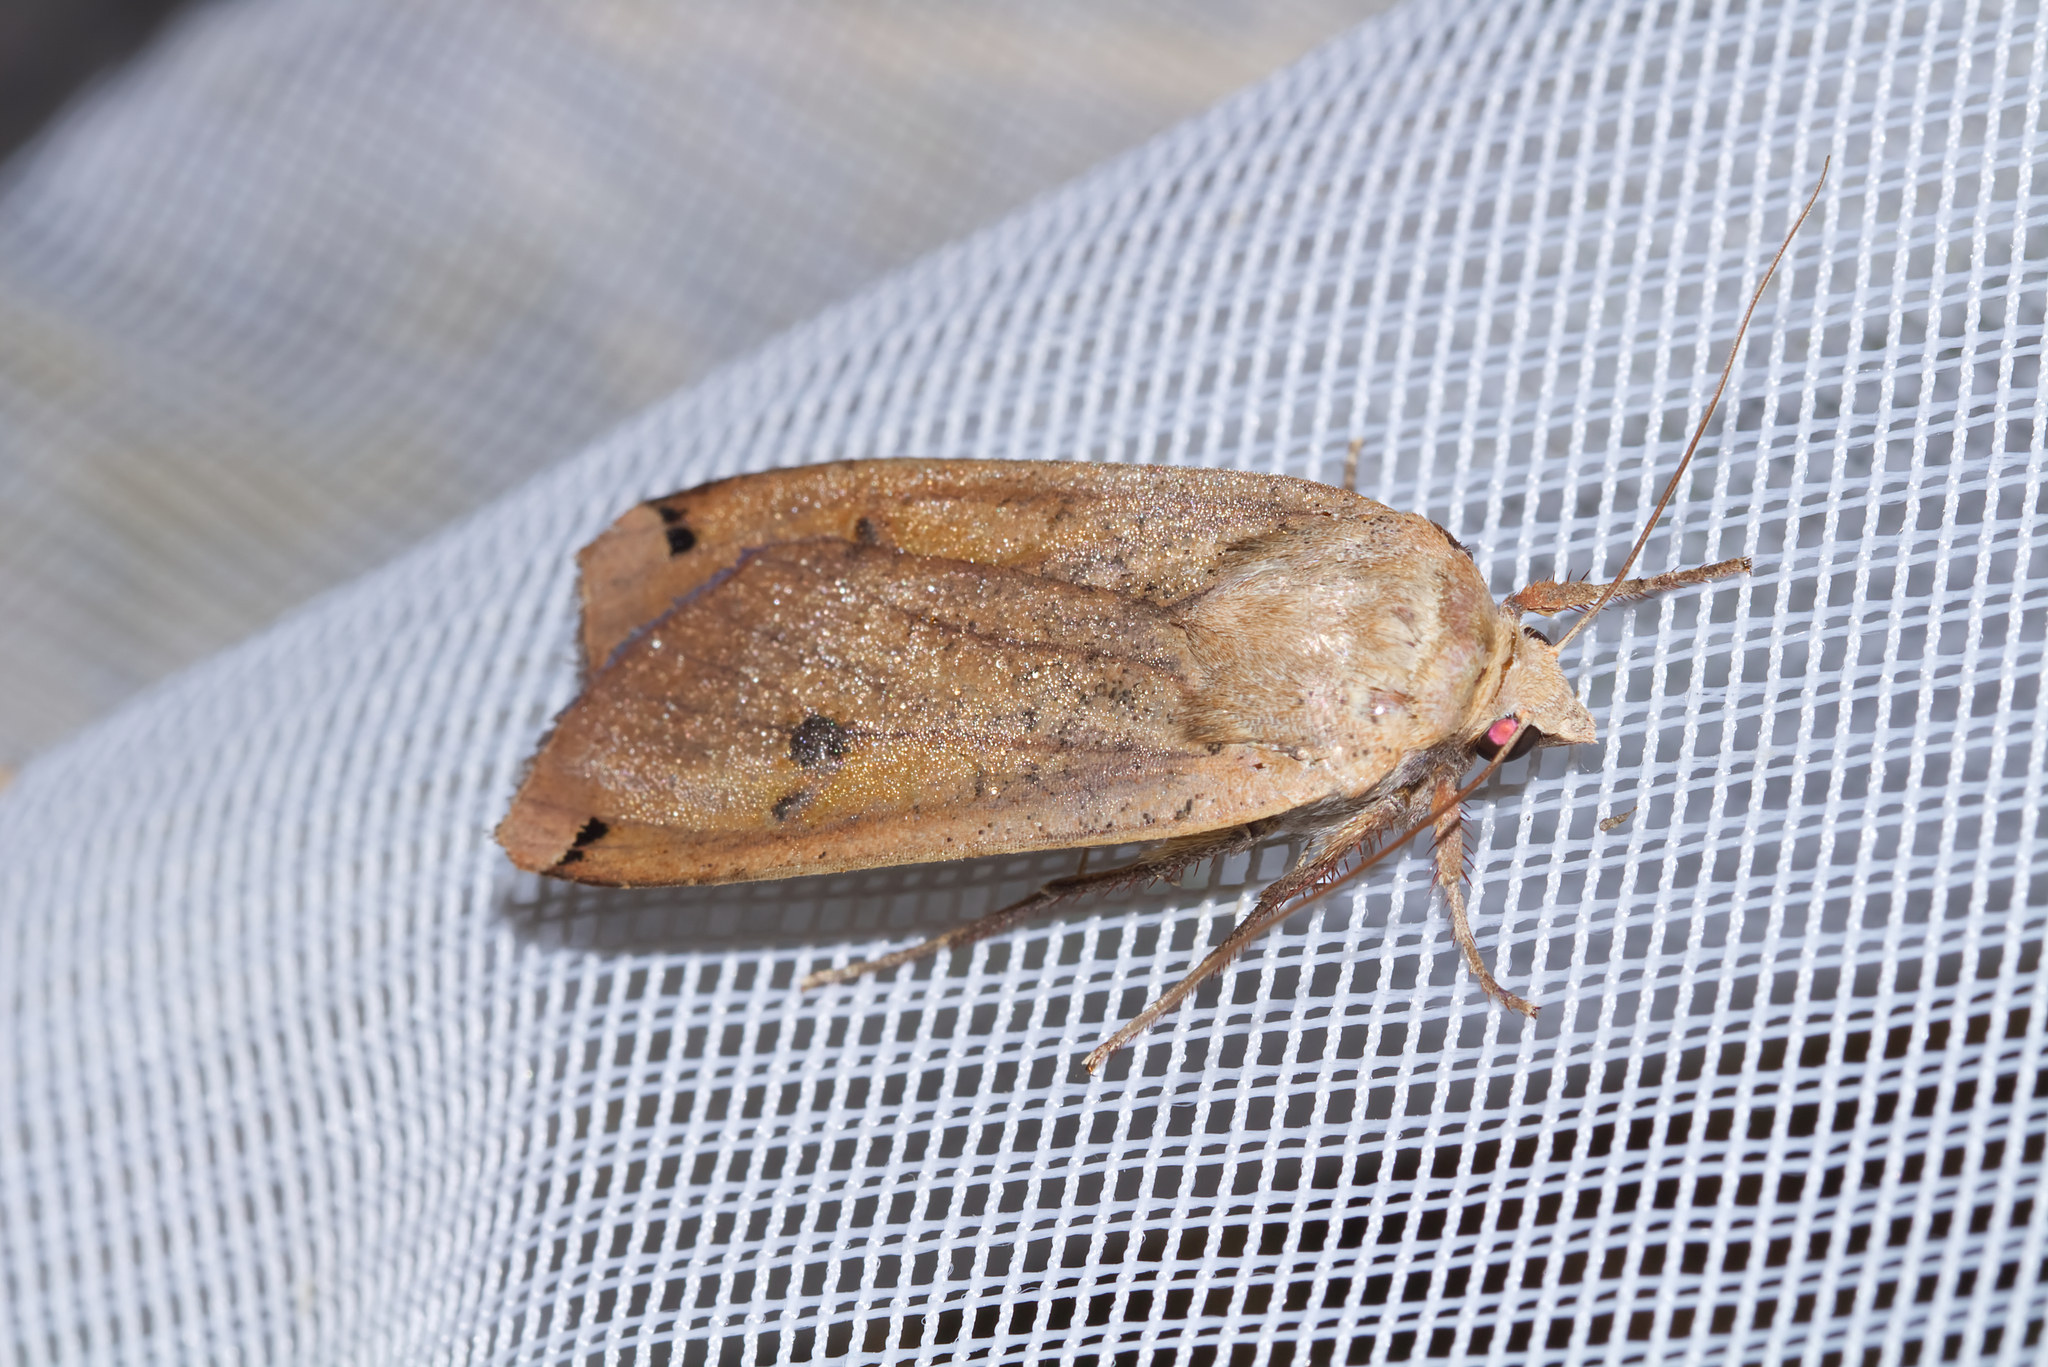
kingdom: Animalia
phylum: Arthropoda
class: Insecta
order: Lepidoptera
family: Noctuidae
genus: Noctua
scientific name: Noctua pronuba
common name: Large yellow underwing
